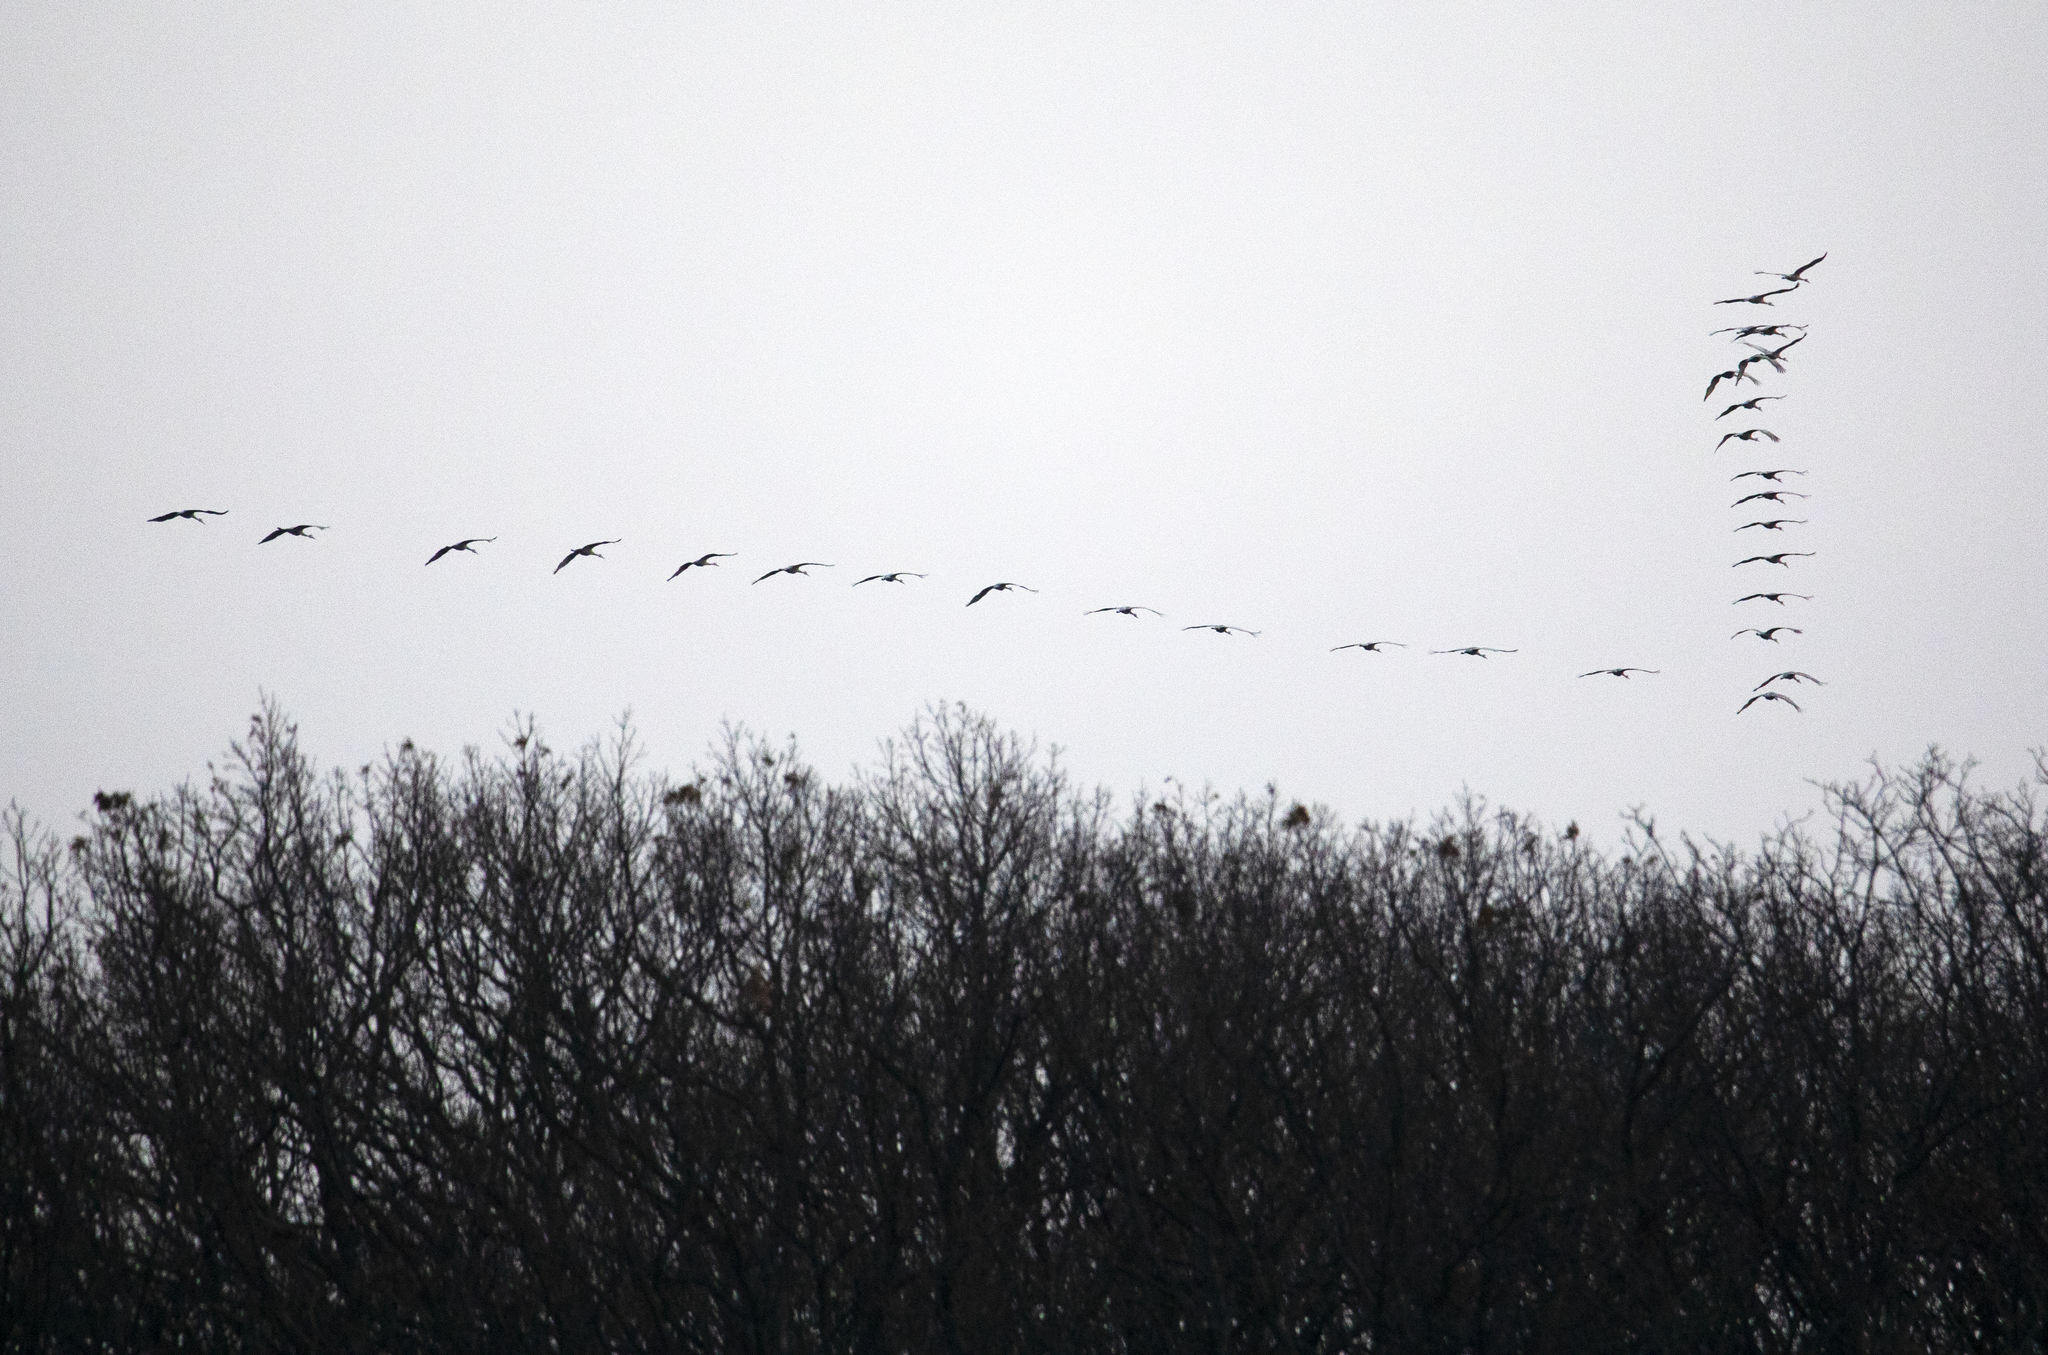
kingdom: Animalia
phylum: Chordata
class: Aves
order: Anseriformes
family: Anatidae
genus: Branta
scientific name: Branta canadensis
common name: Canada goose
